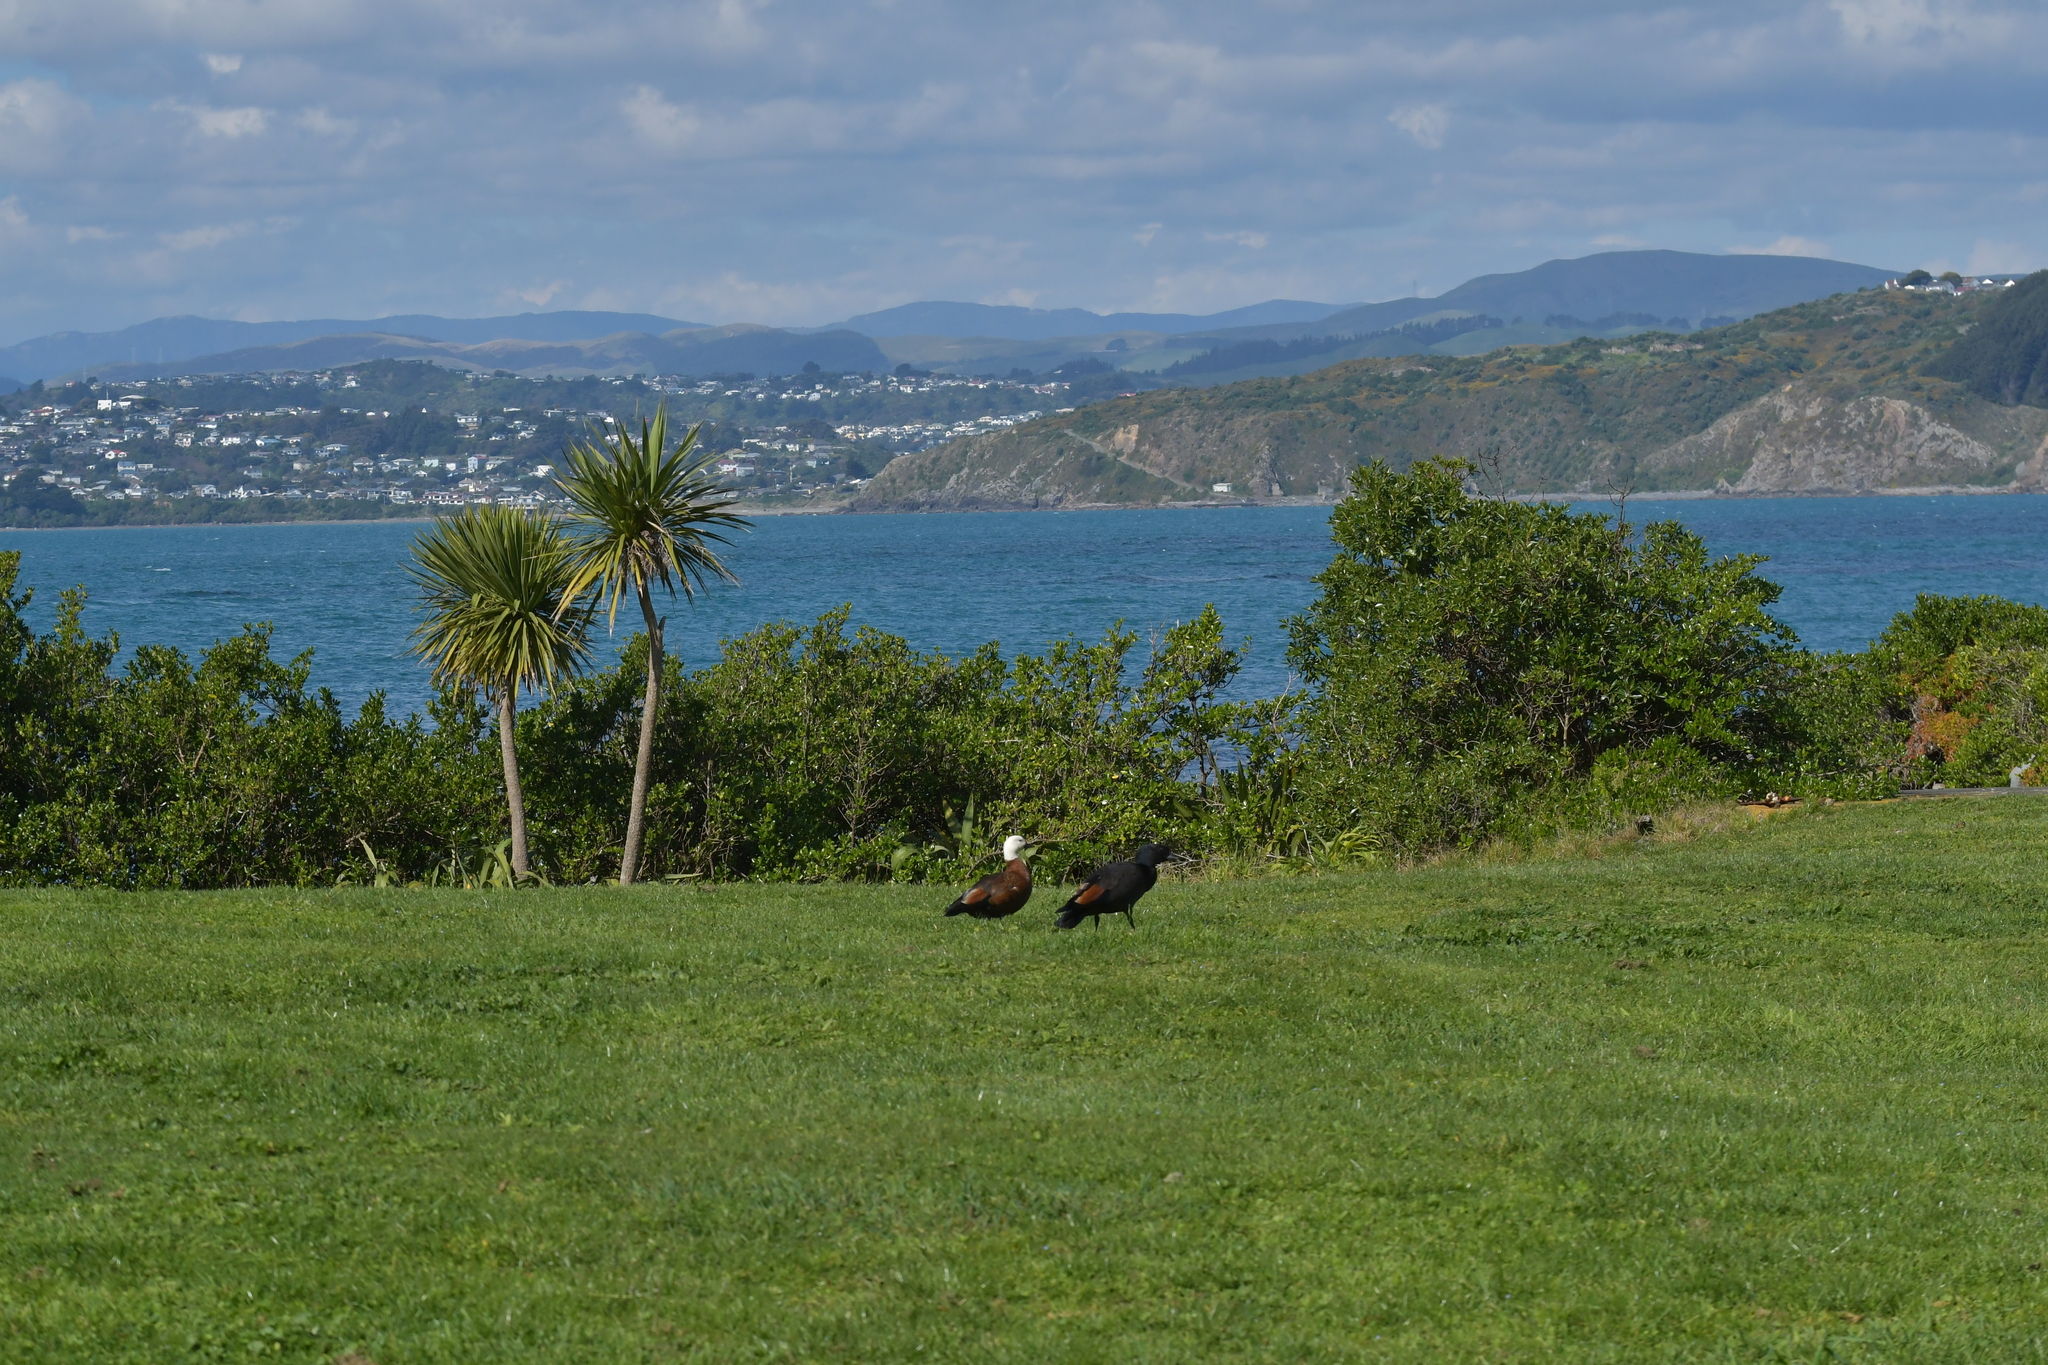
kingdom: Animalia
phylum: Chordata
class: Aves
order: Anseriformes
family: Anatidae
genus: Tadorna
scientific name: Tadorna variegata
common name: Paradise shelduck
